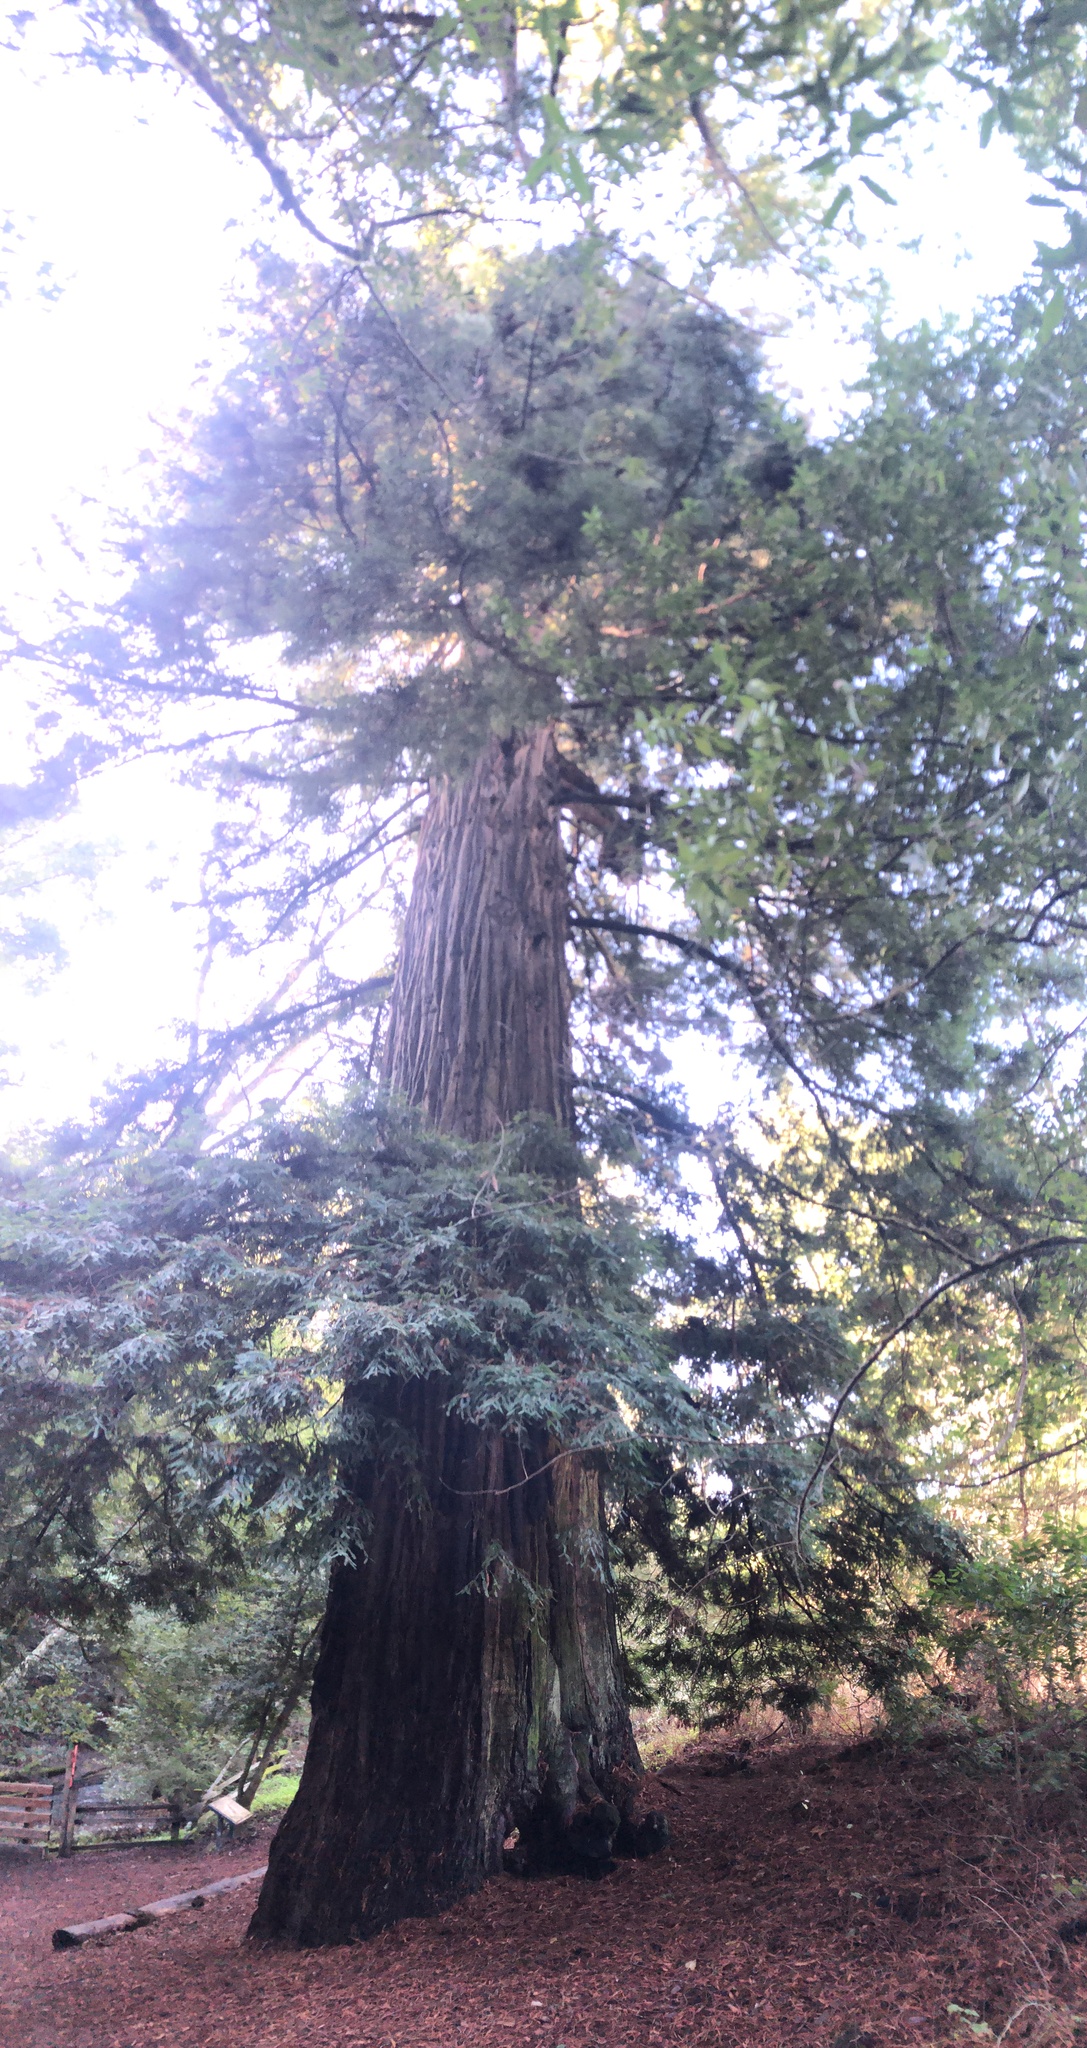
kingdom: Plantae
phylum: Tracheophyta
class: Pinopsida
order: Pinales
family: Cupressaceae
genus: Sequoia
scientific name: Sequoia sempervirens
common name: Coast redwood
